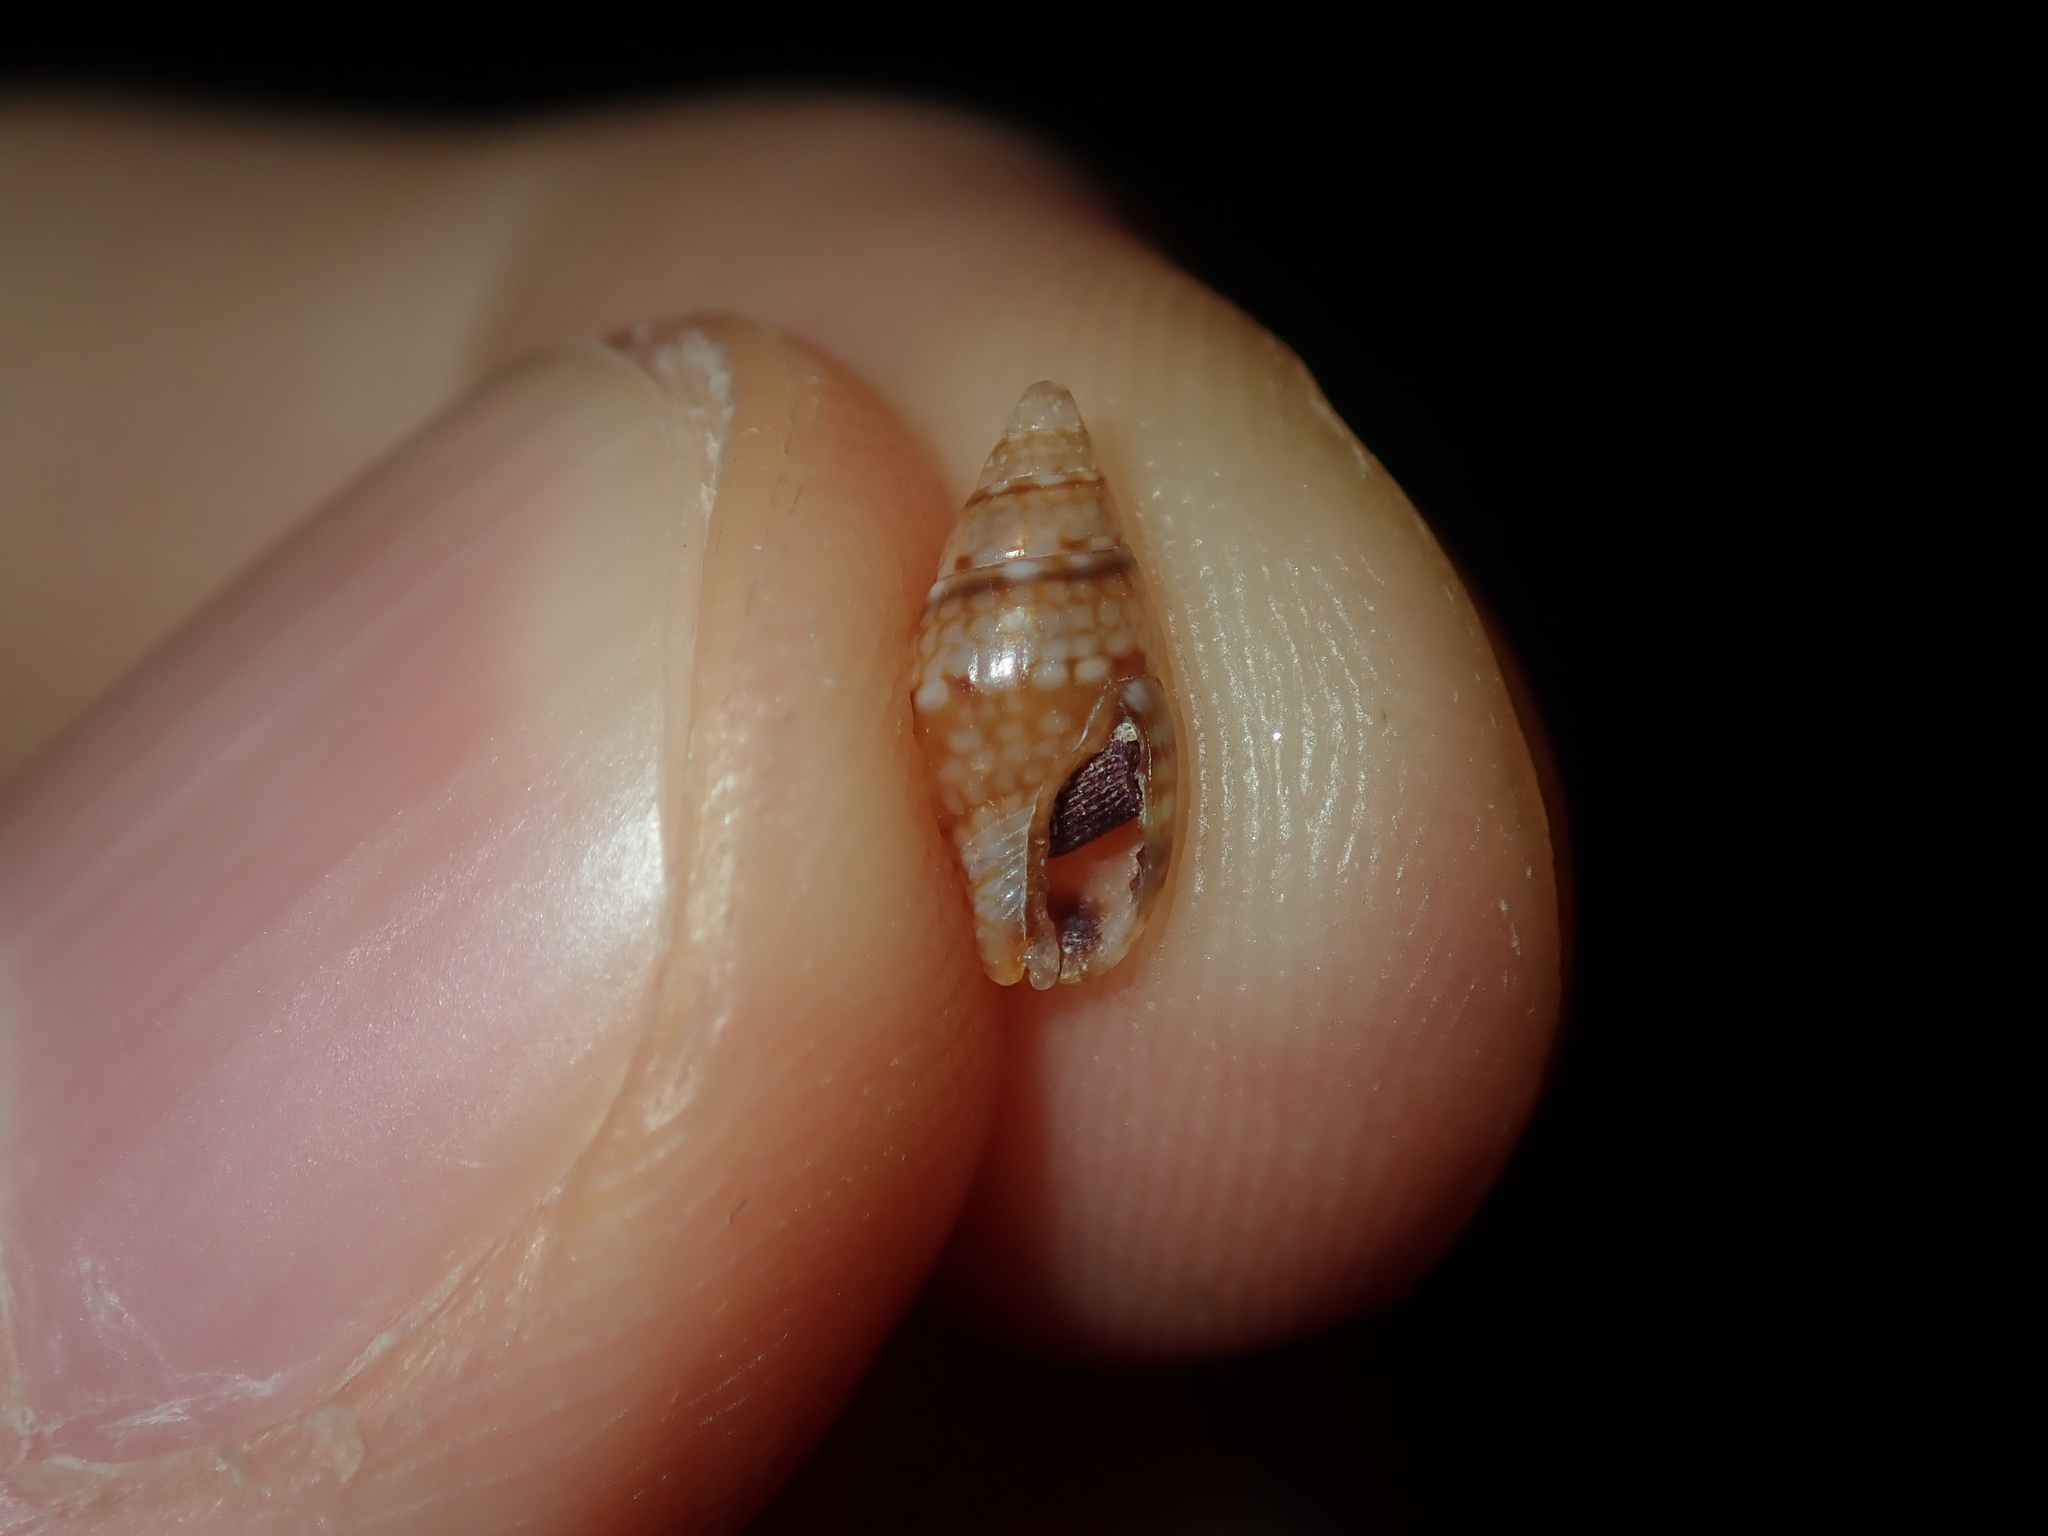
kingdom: Animalia
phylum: Mollusca
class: Gastropoda
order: Neogastropoda
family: Columbellidae
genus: Pseudamycla
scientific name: Pseudamycla dermestoidea
